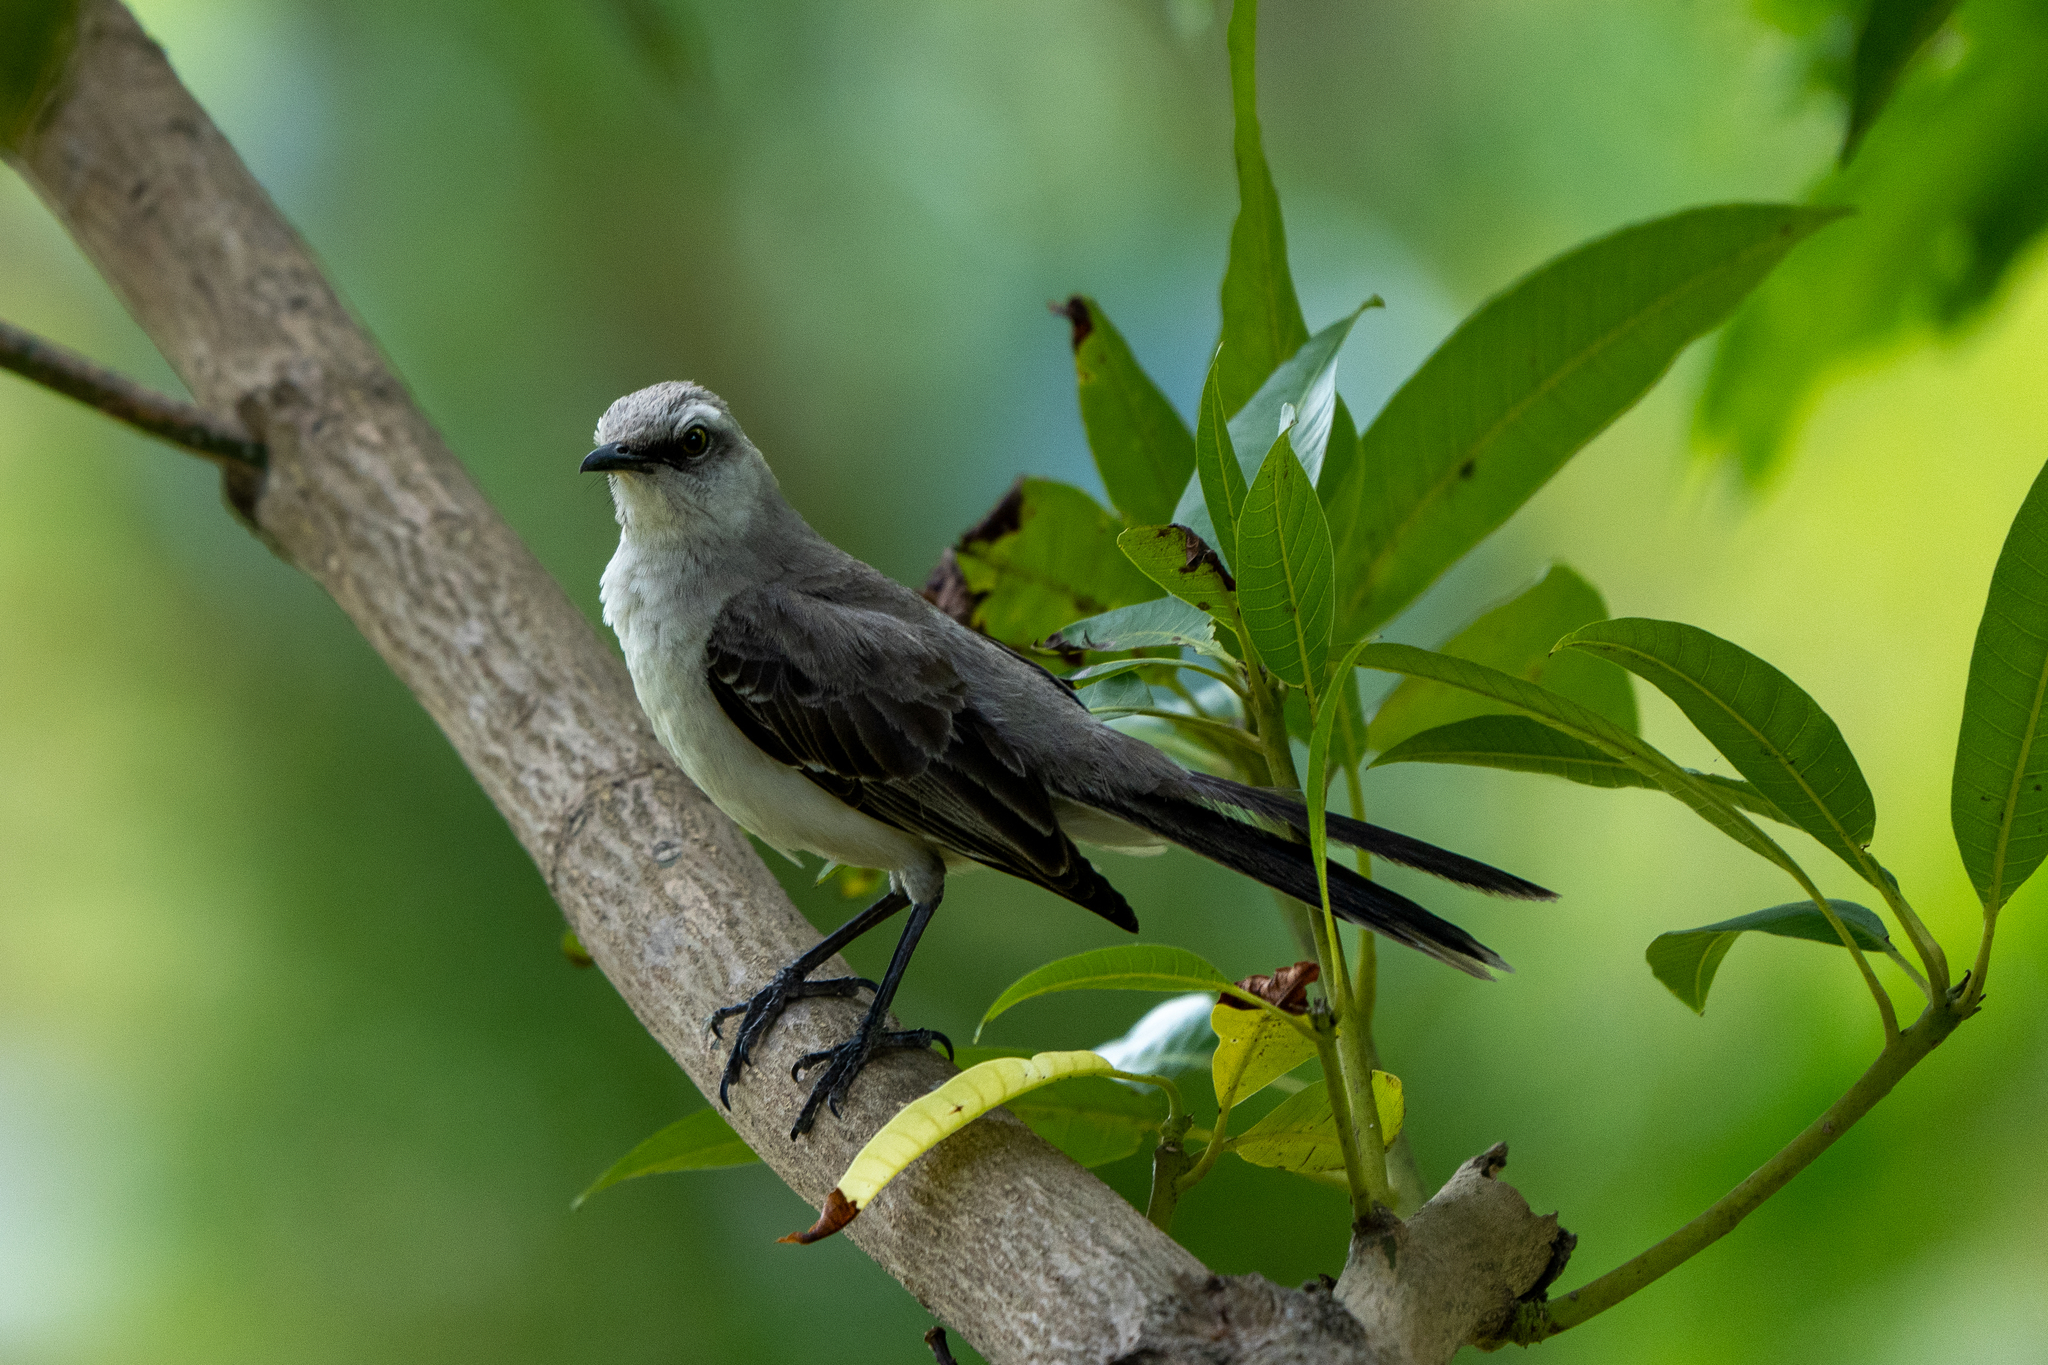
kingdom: Animalia
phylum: Chordata
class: Aves
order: Passeriformes
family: Mimidae
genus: Mimus
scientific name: Mimus gilvus
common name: Tropical mockingbird
